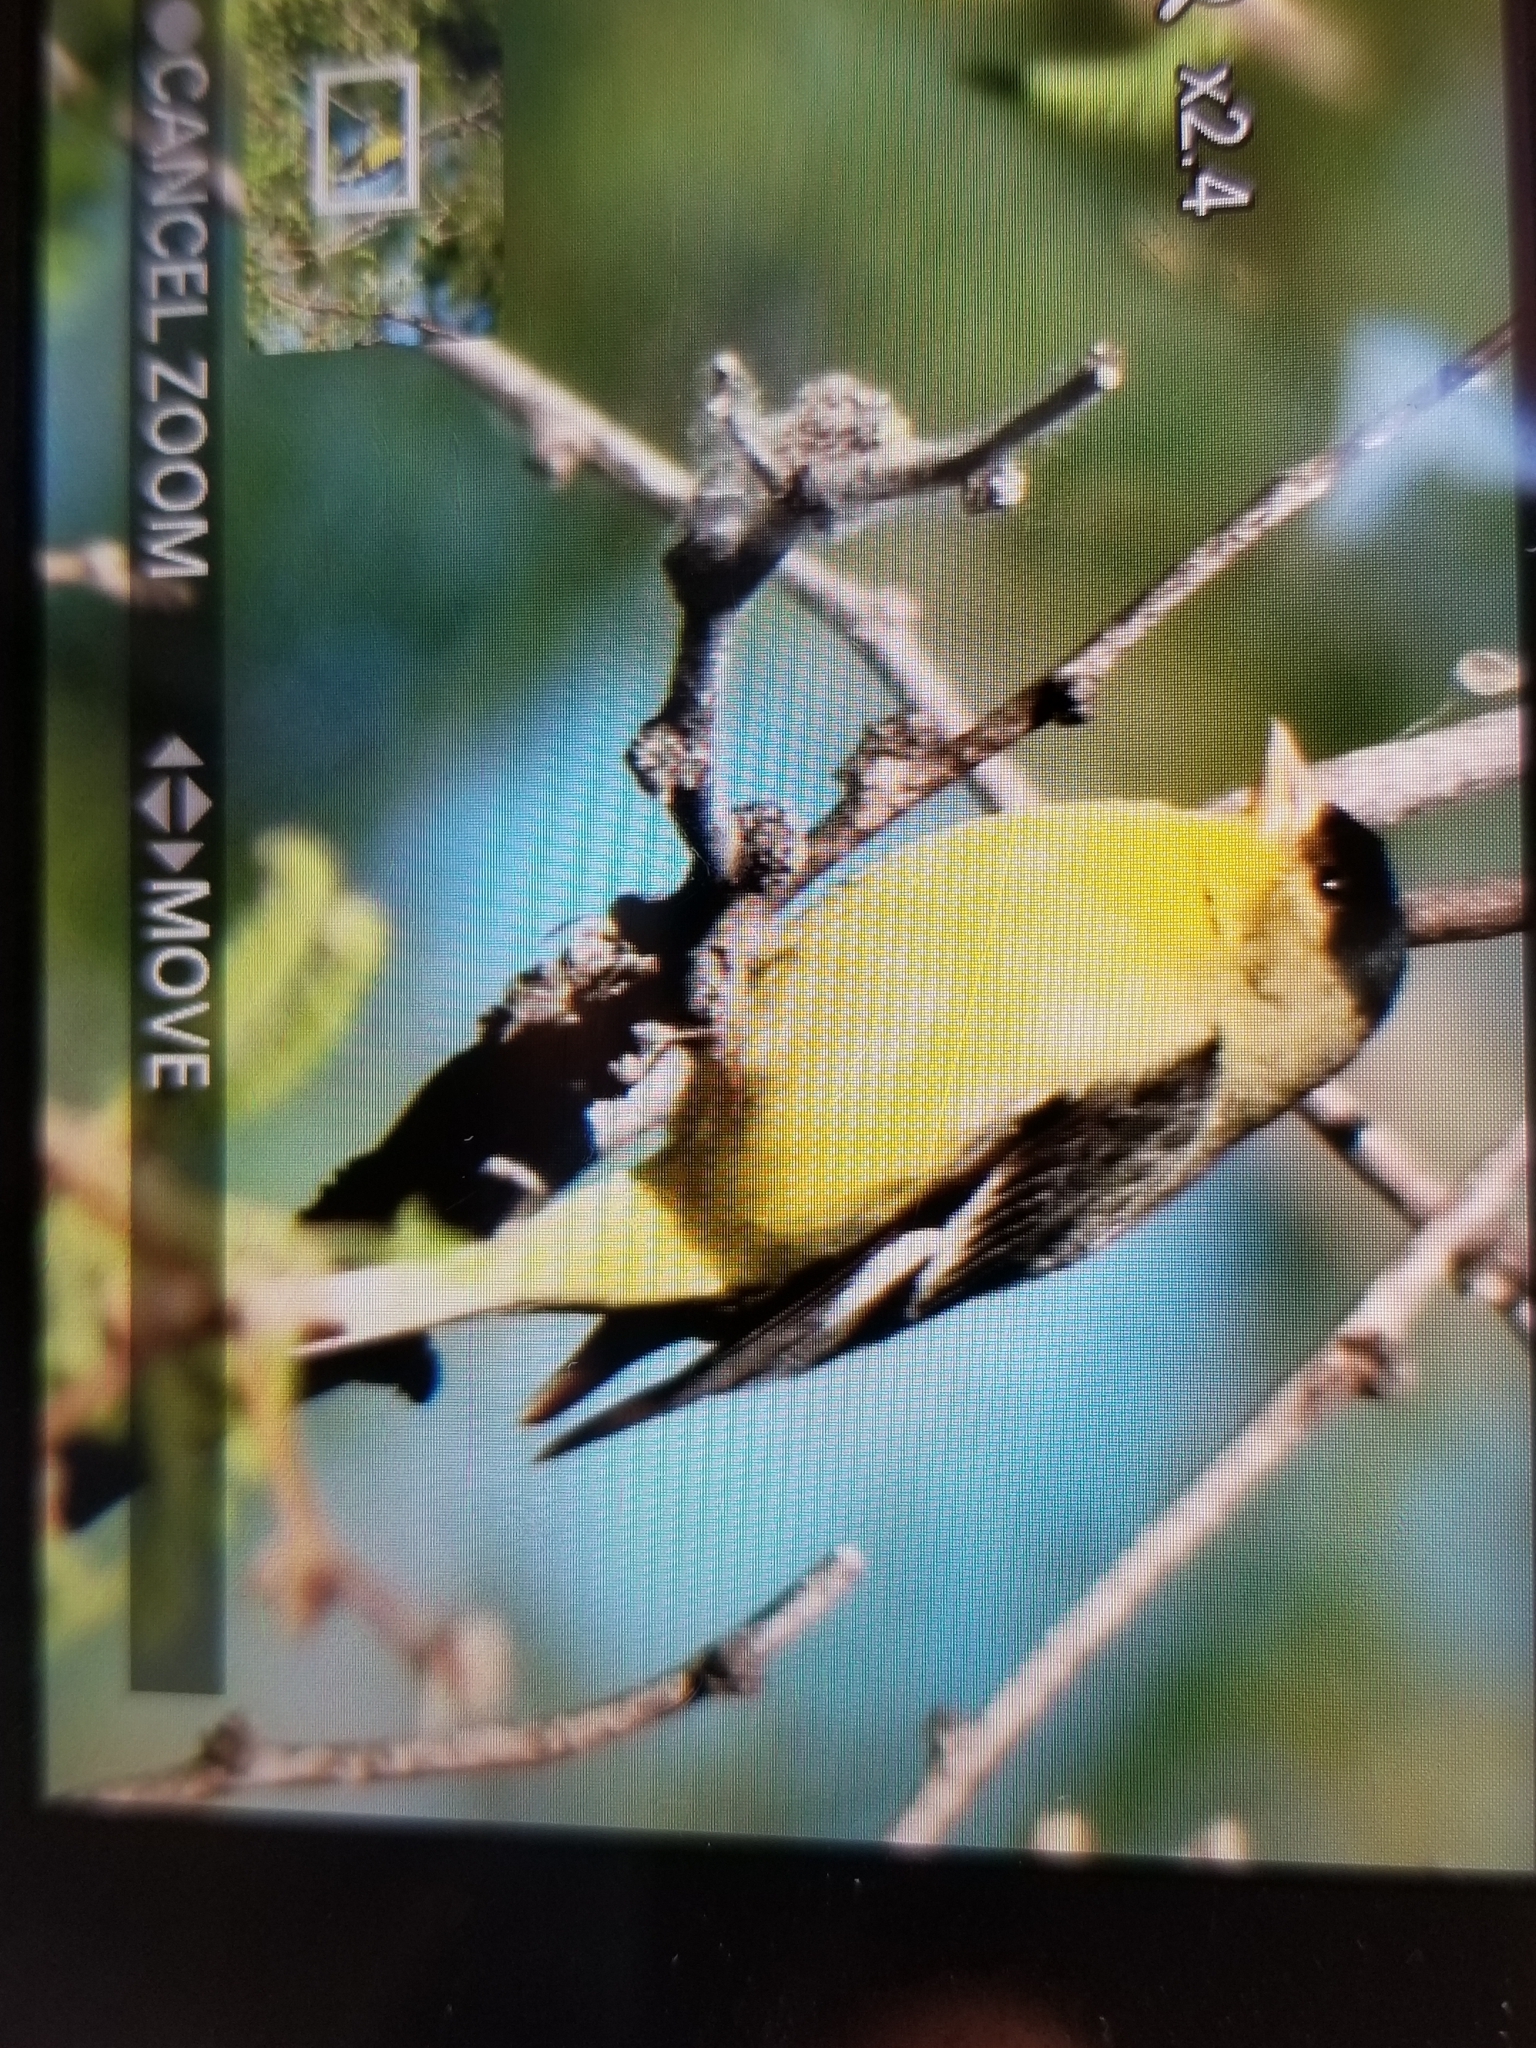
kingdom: Animalia
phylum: Chordata
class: Aves
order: Passeriformes
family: Fringillidae
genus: Spinus
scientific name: Spinus psaltria
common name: Lesser goldfinch
